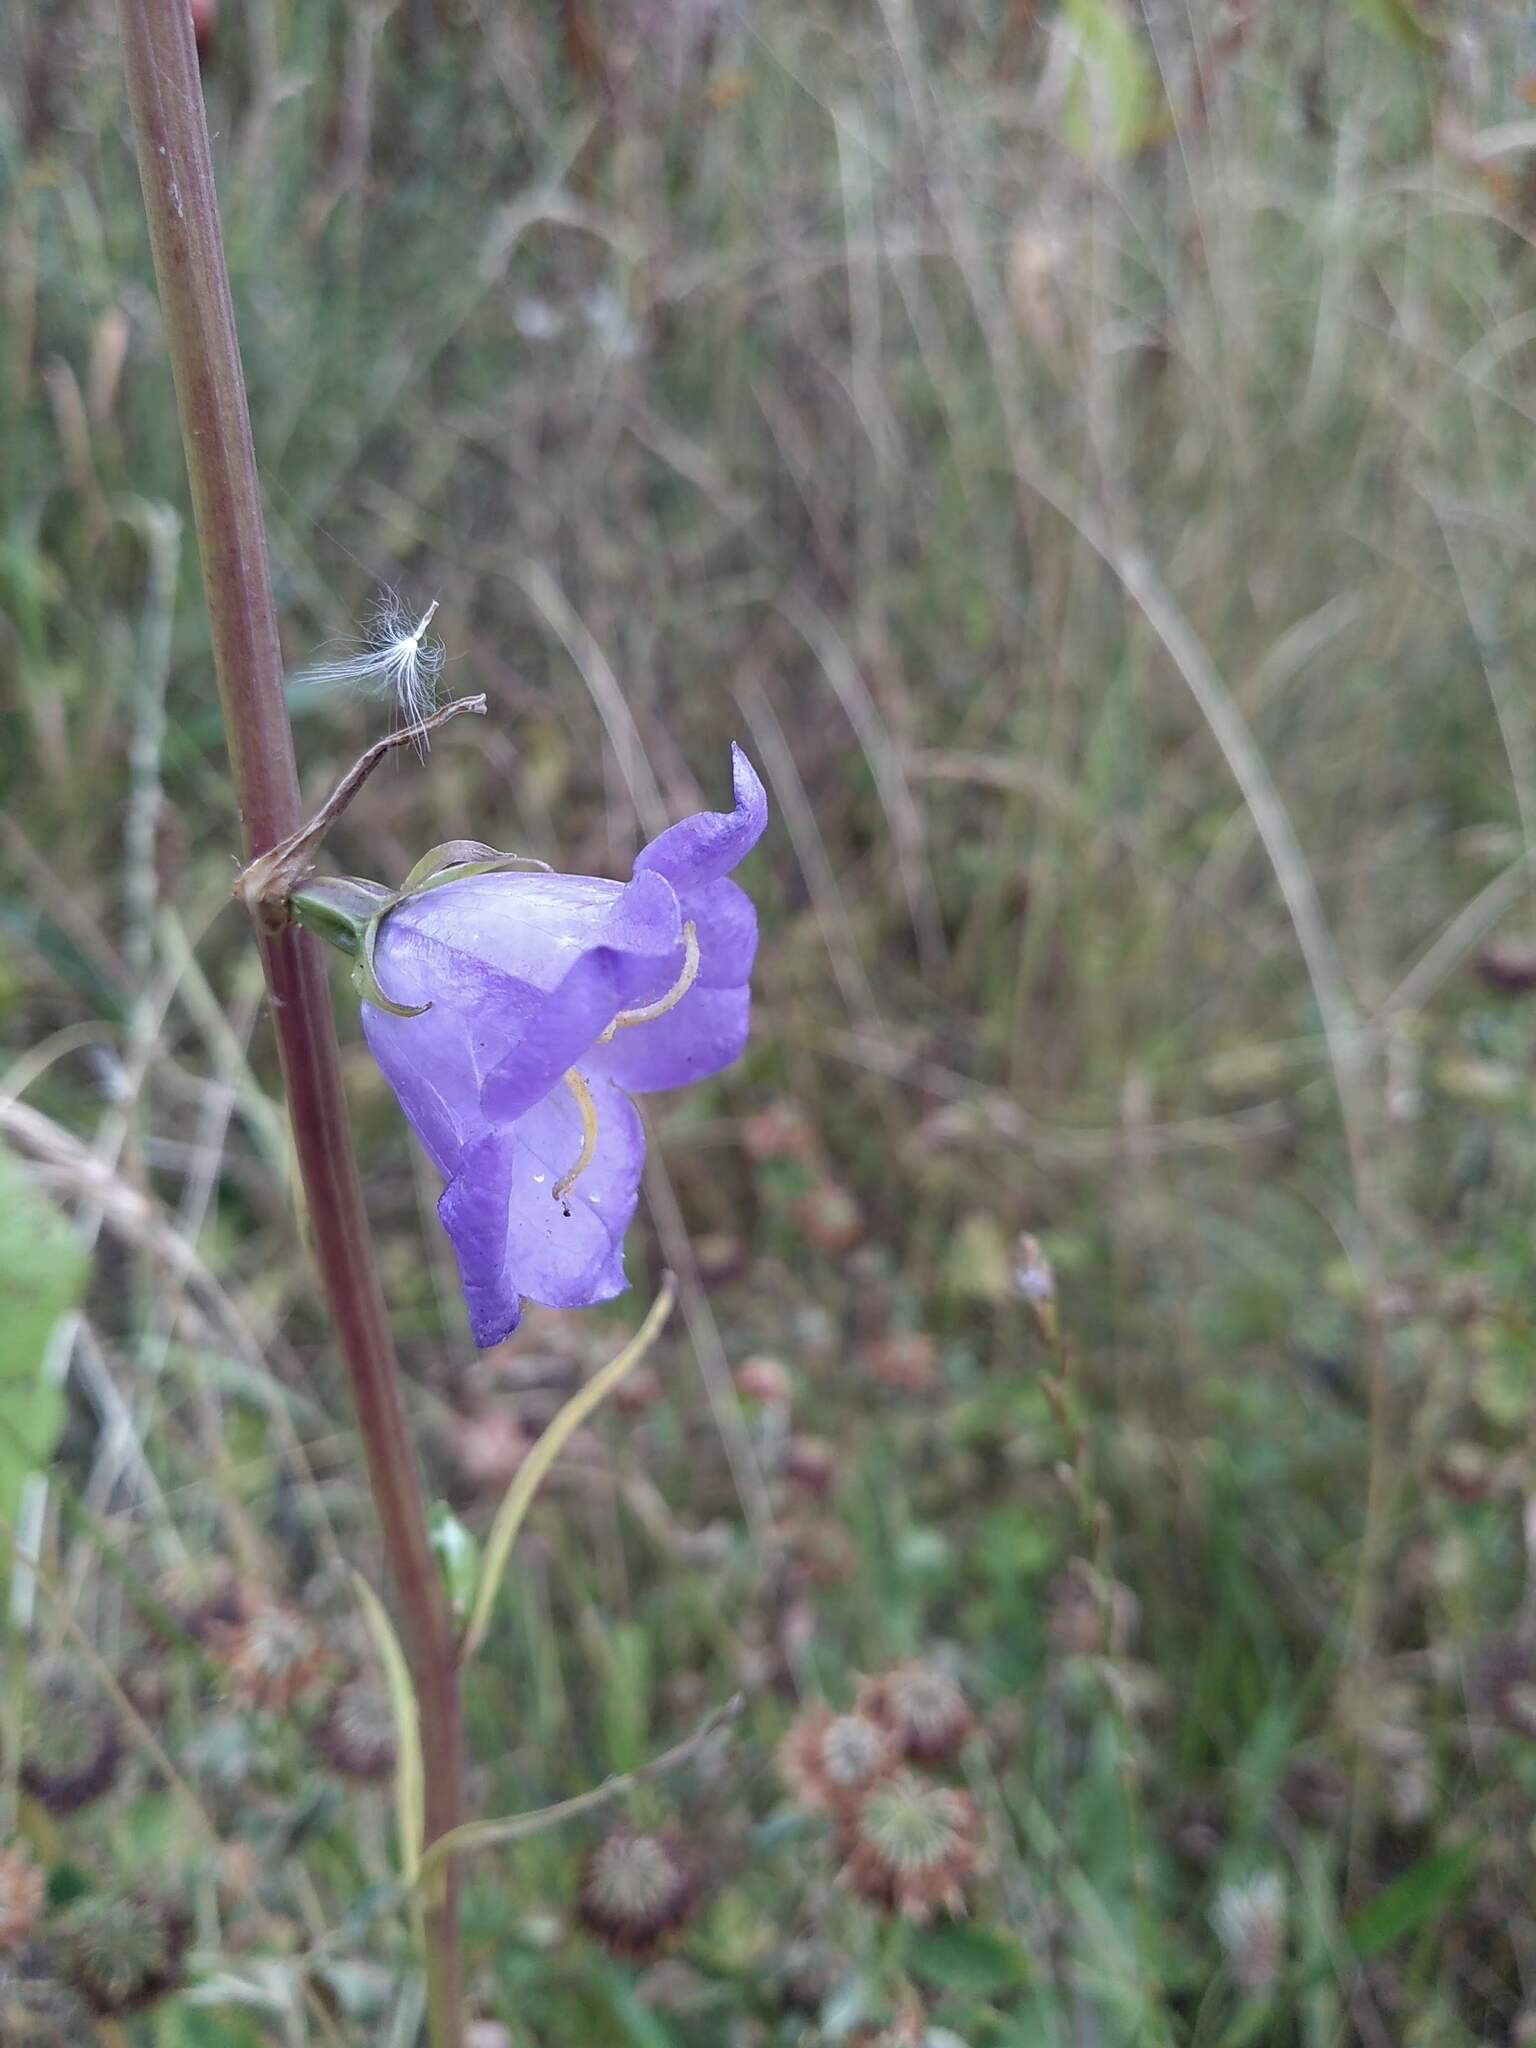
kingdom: Plantae
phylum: Tracheophyta
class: Magnoliopsida
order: Asterales
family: Campanulaceae
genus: Campanula
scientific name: Campanula persicifolia
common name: Peach-leaved bellflower
